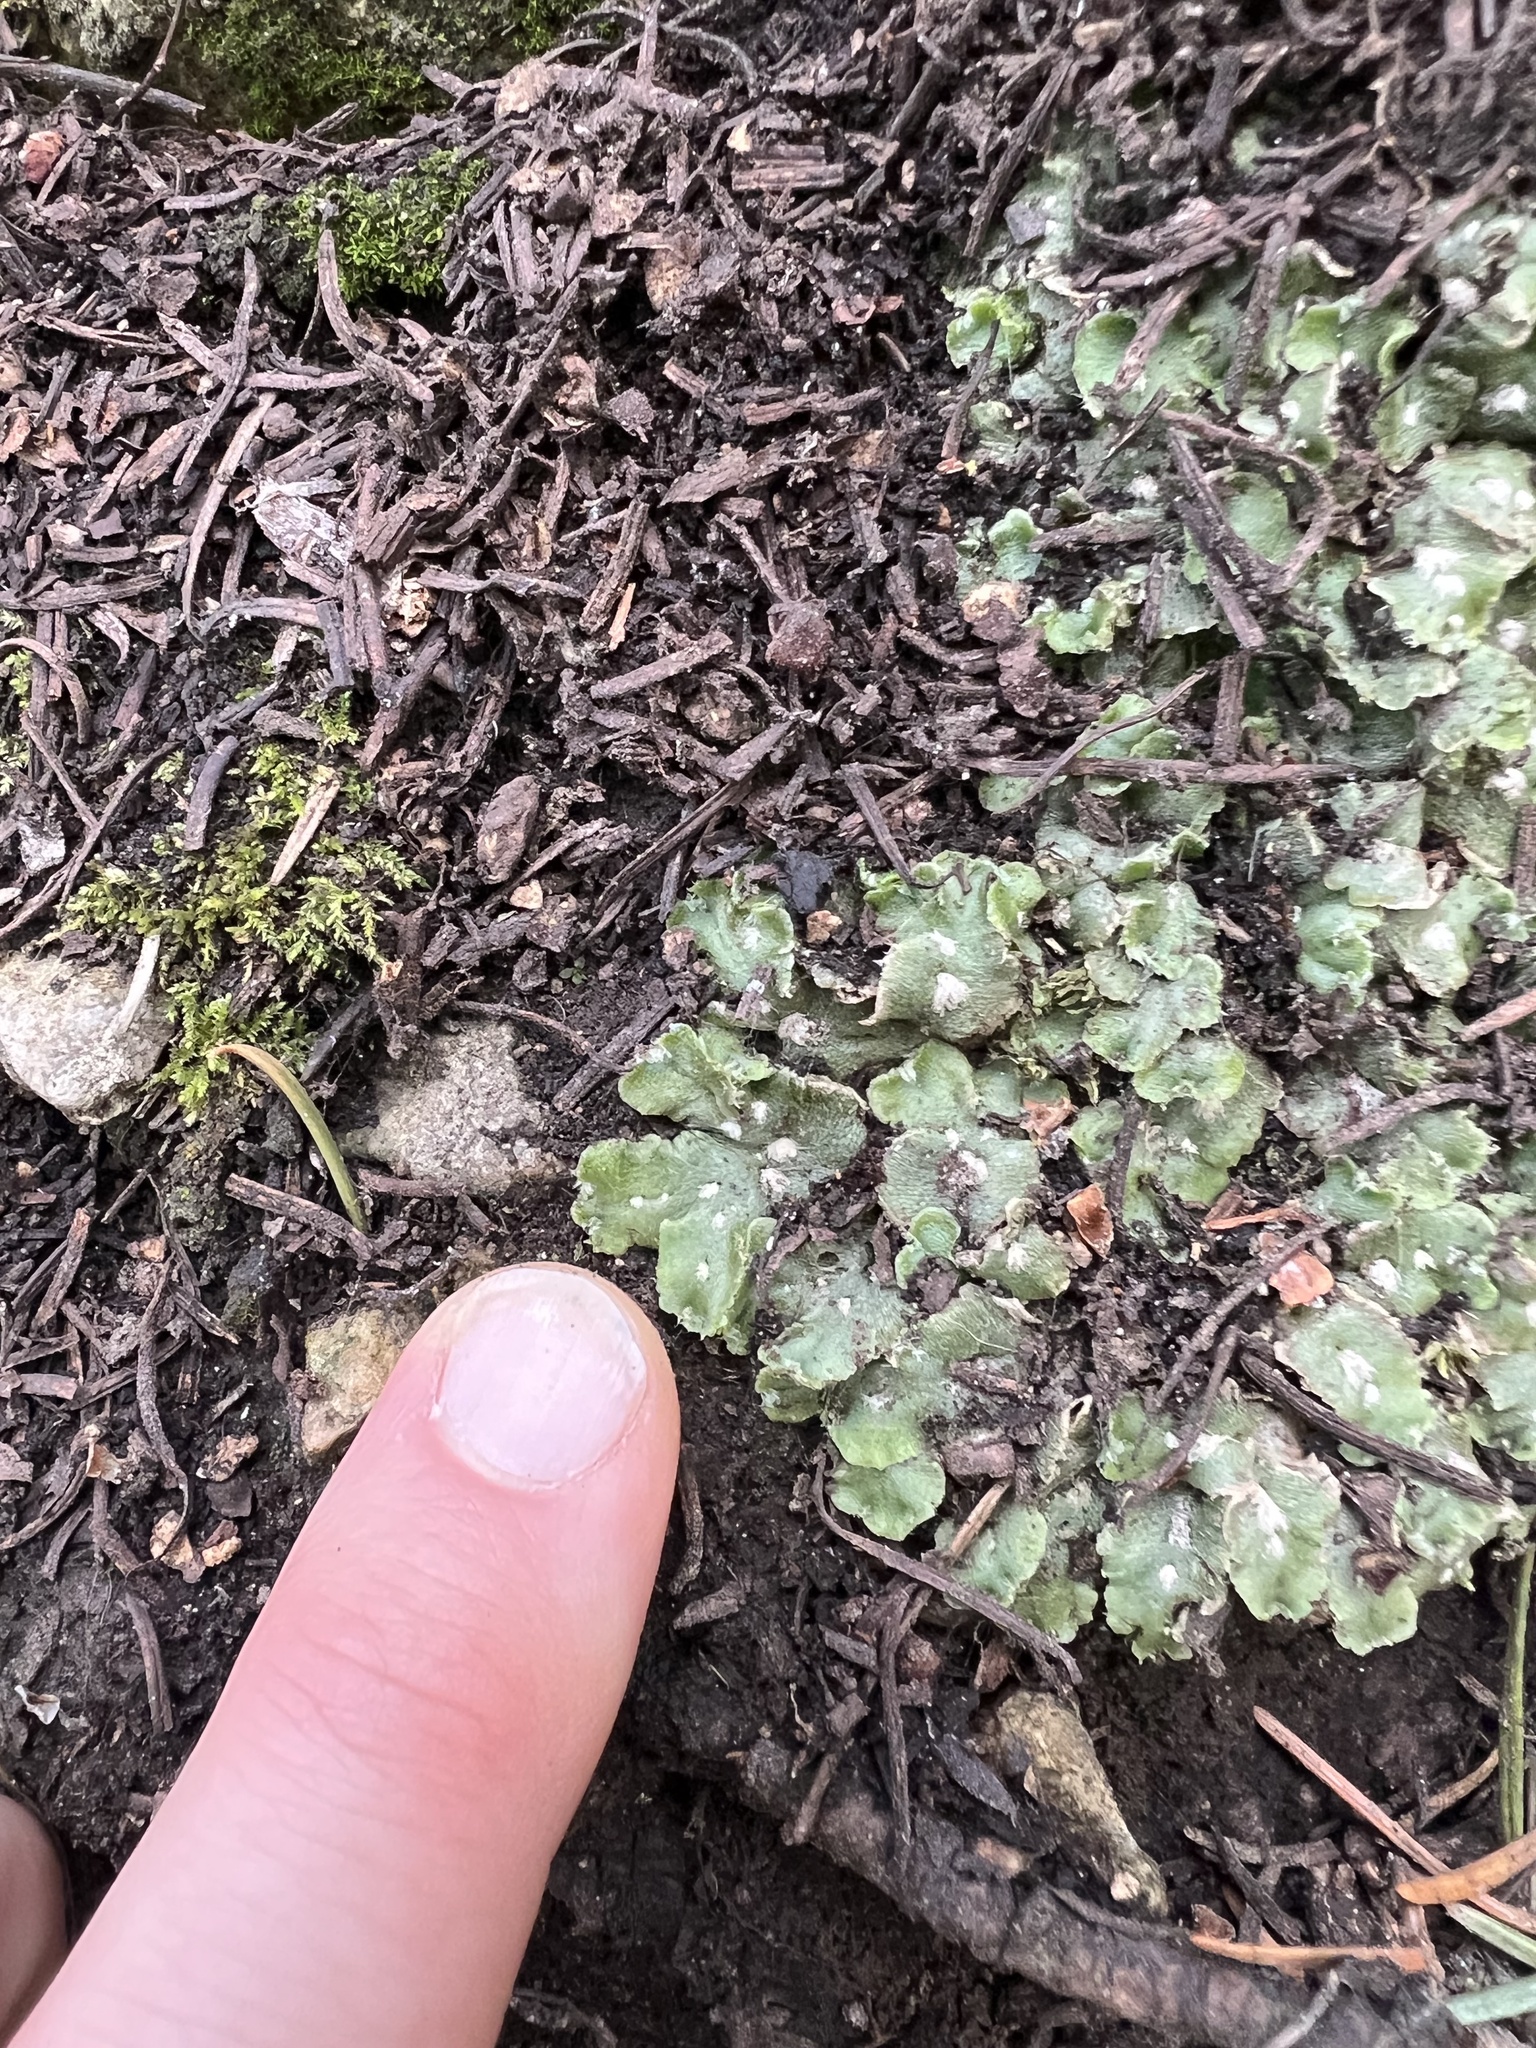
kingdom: Plantae
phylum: Marchantiophyta
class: Marchantiopsida
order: Marchantiales
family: Cleveaceae
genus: Clevea
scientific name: Clevea hyalina
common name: Hyaline liverwort
